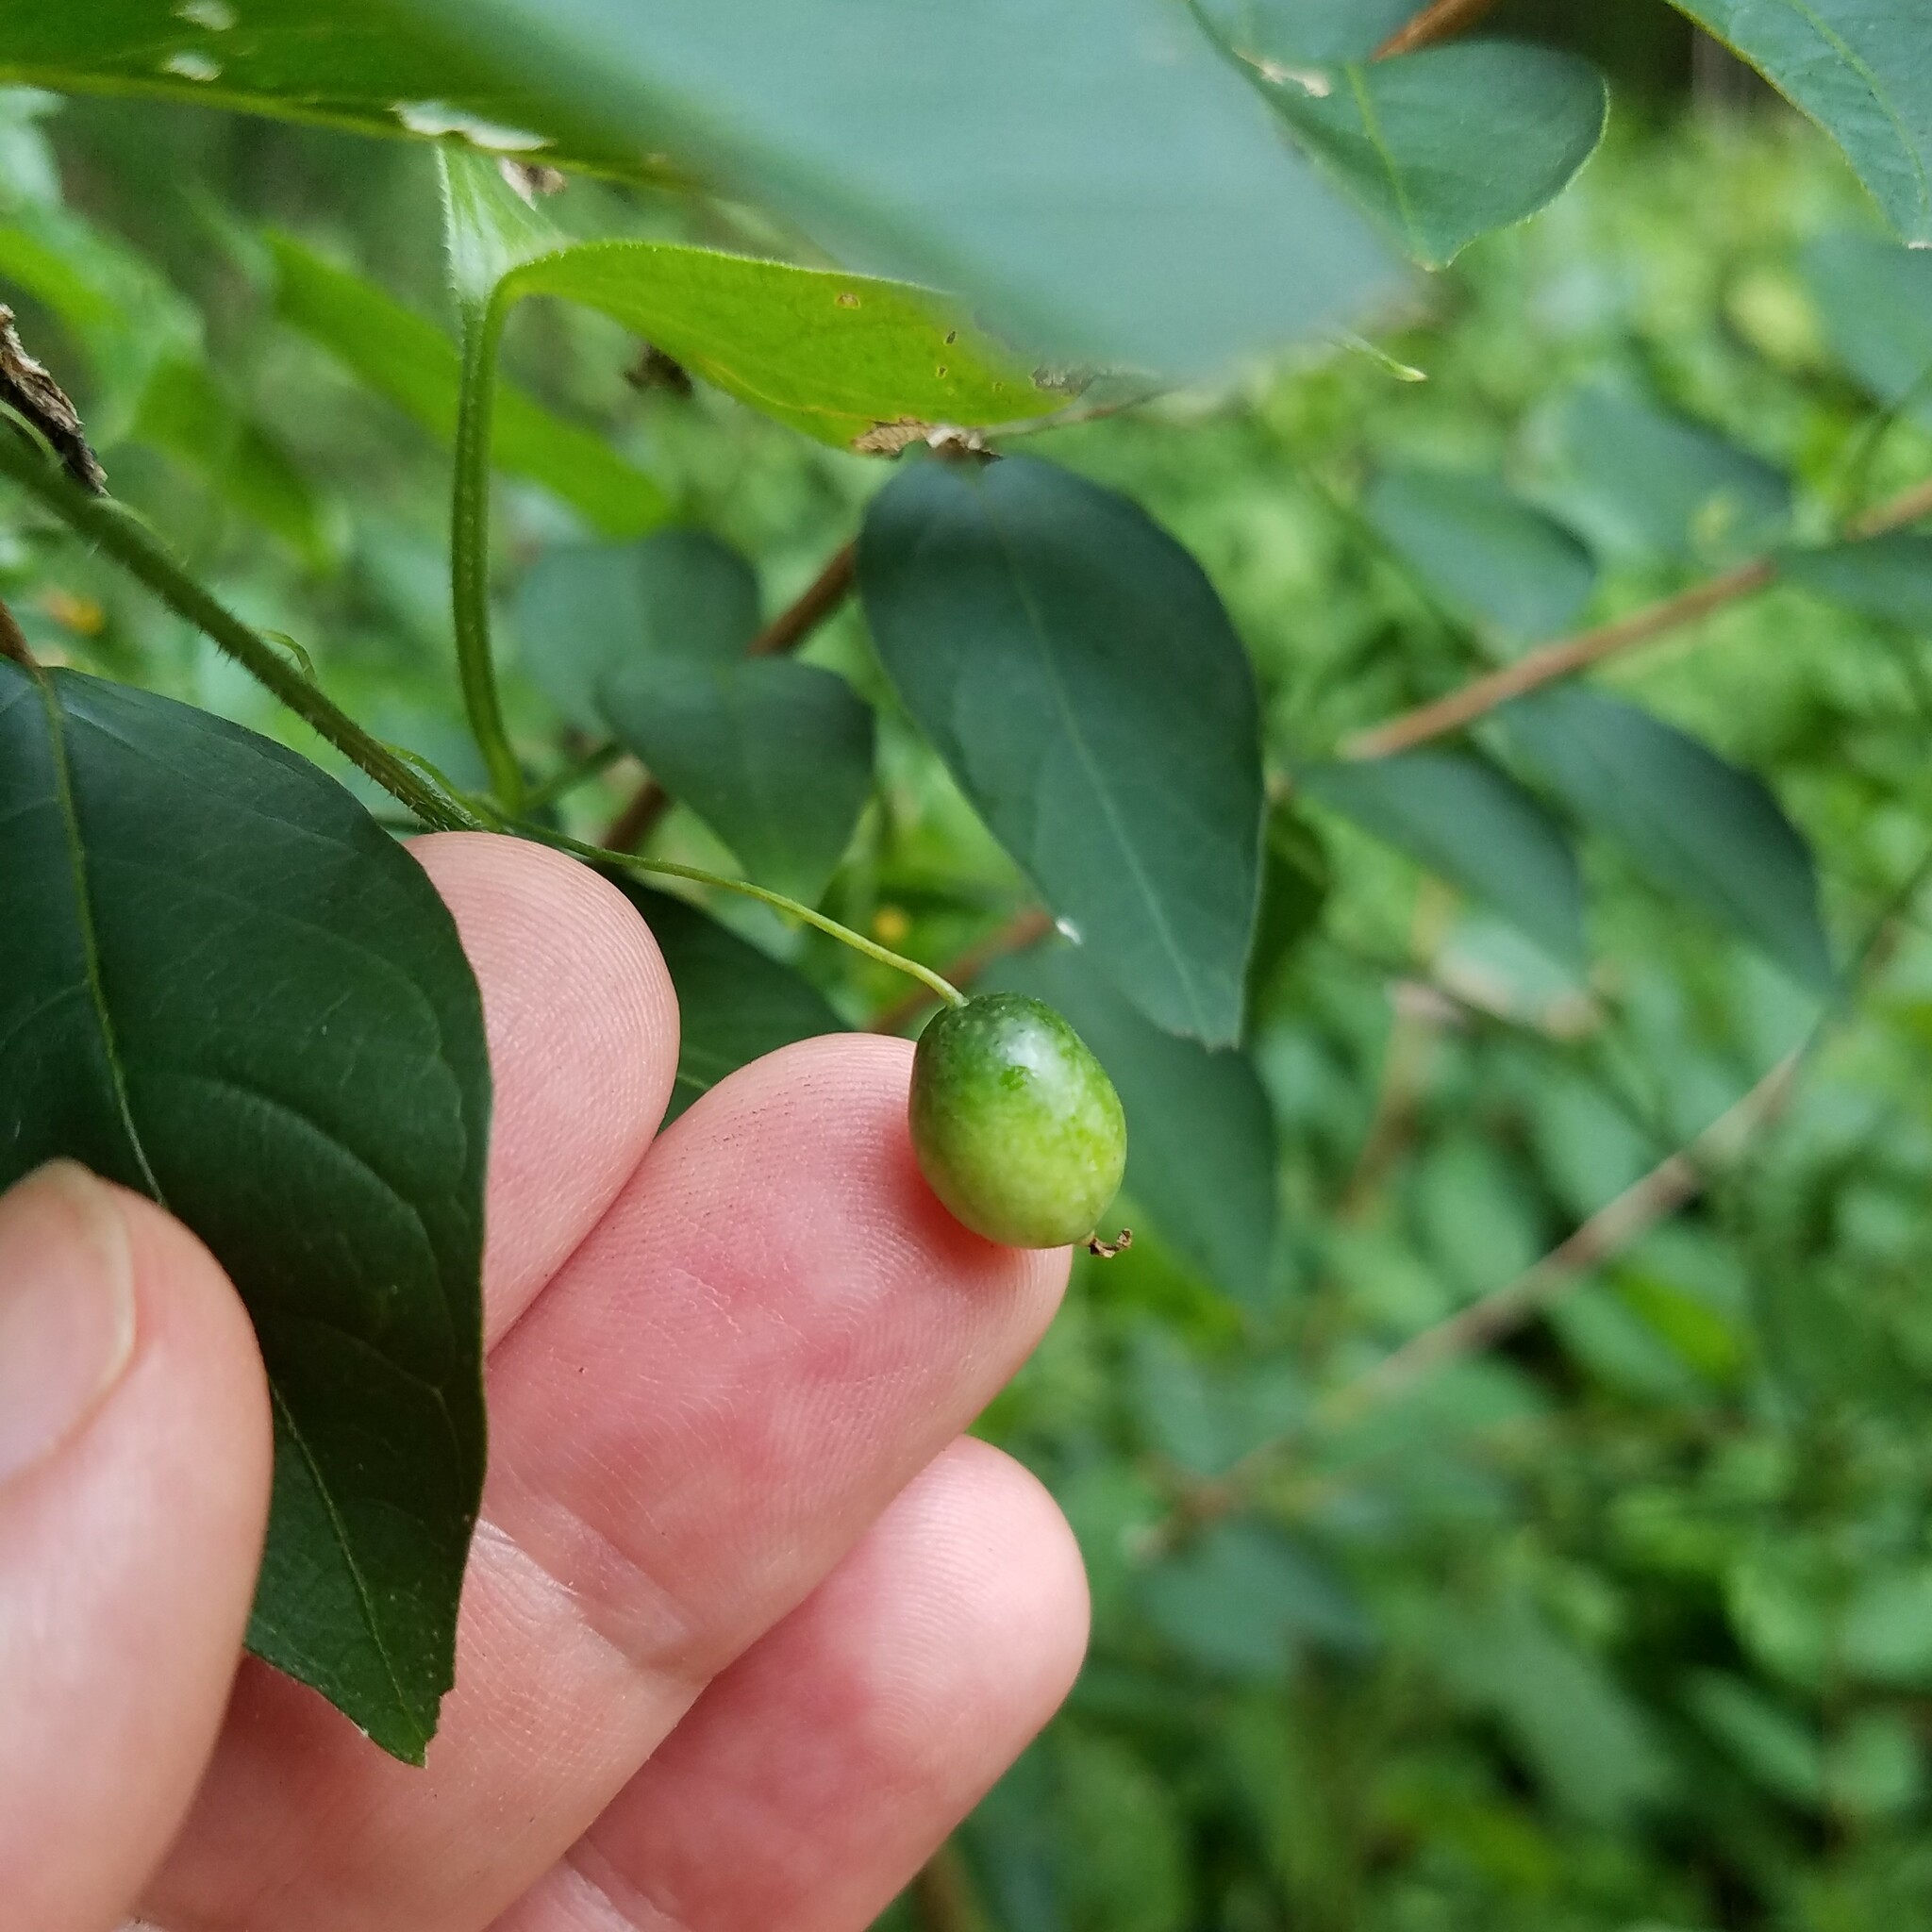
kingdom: Plantae
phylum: Tracheophyta
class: Magnoliopsida
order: Cucurbitales
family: Cucurbitaceae
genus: Melothria
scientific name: Melothria pendula
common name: Creeping-cucumber
